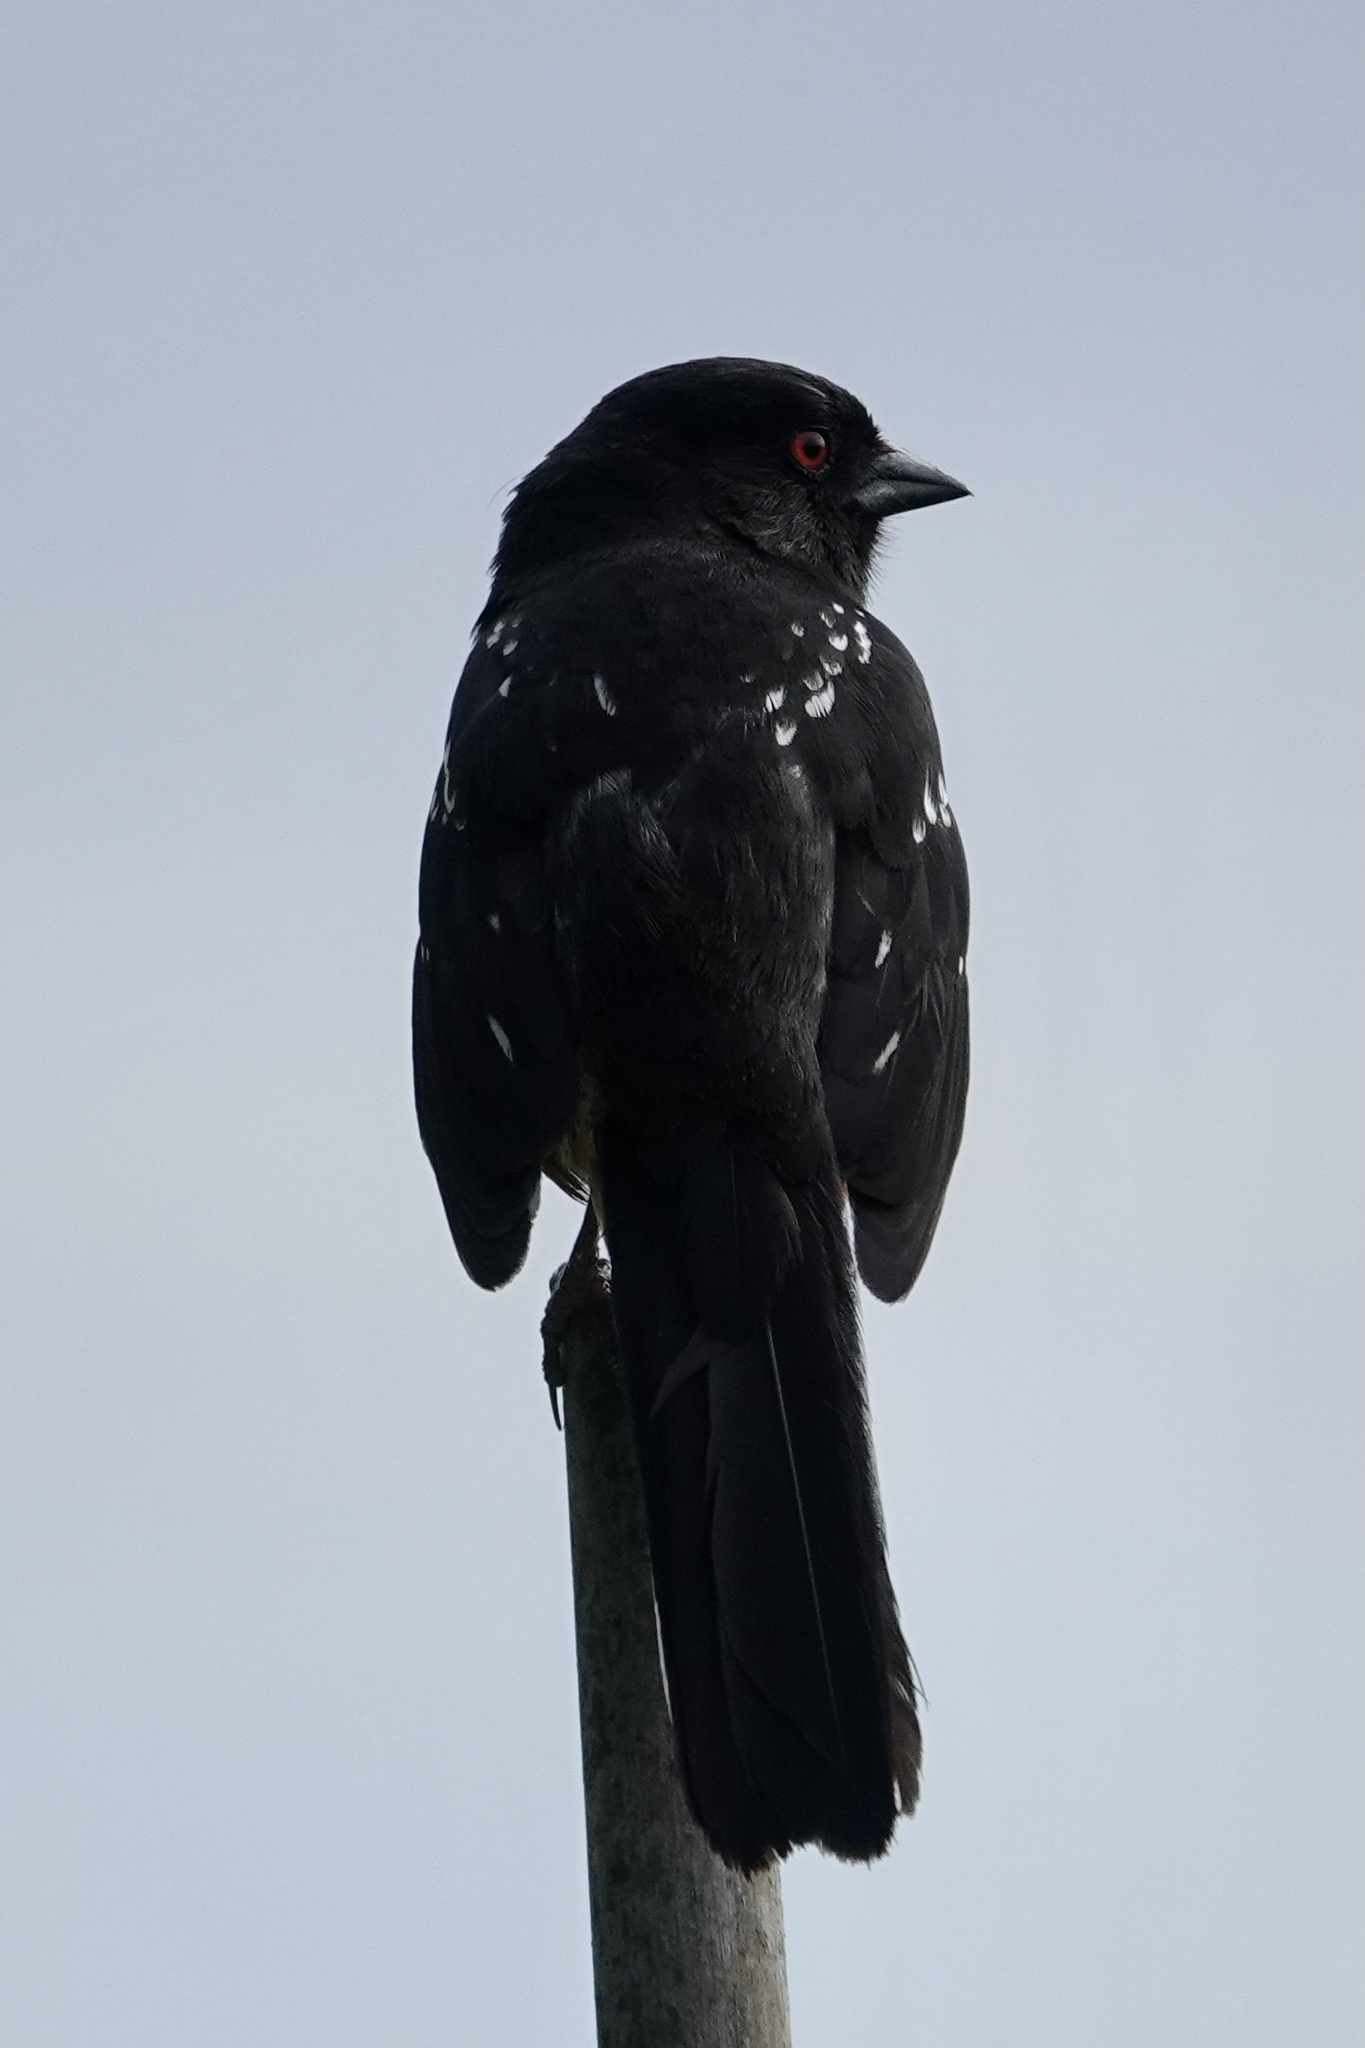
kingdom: Animalia
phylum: Chordata
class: Aves
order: Passeriformes
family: Passerellidae
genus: Pipilo
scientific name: Pipilo maculatus
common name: Spotted towhee
